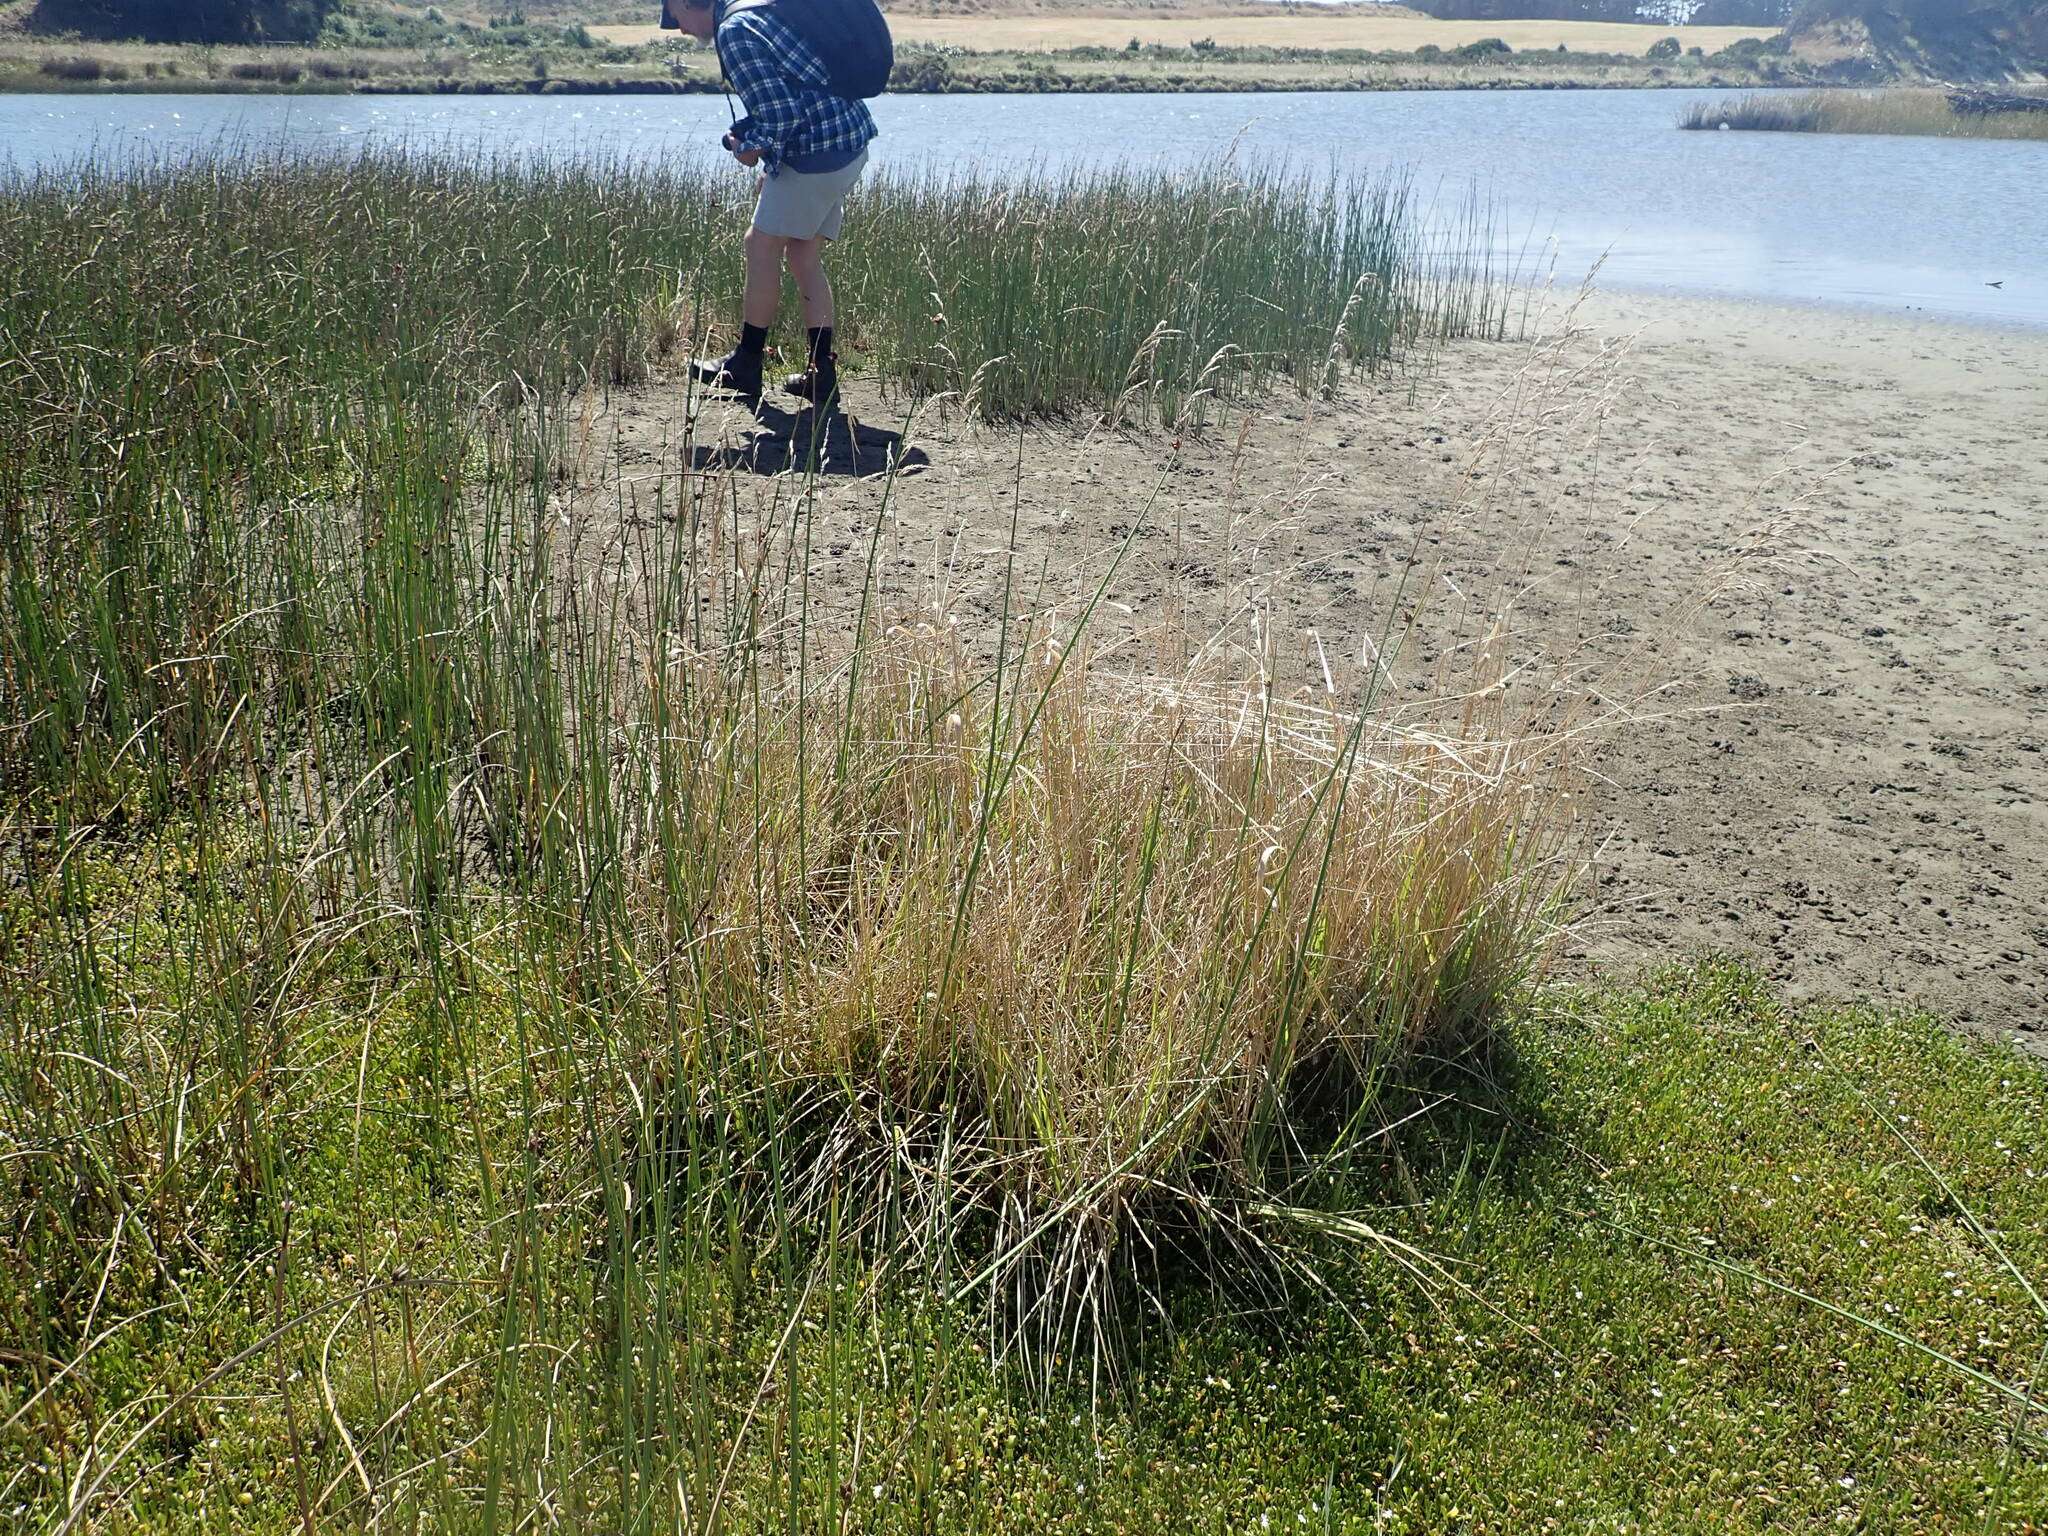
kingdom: Plantae
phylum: Tracheophyta
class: Liliopsida
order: Poales
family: Poaceae
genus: Lolium
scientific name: Lolium arundinaceum
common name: Reed fescue
